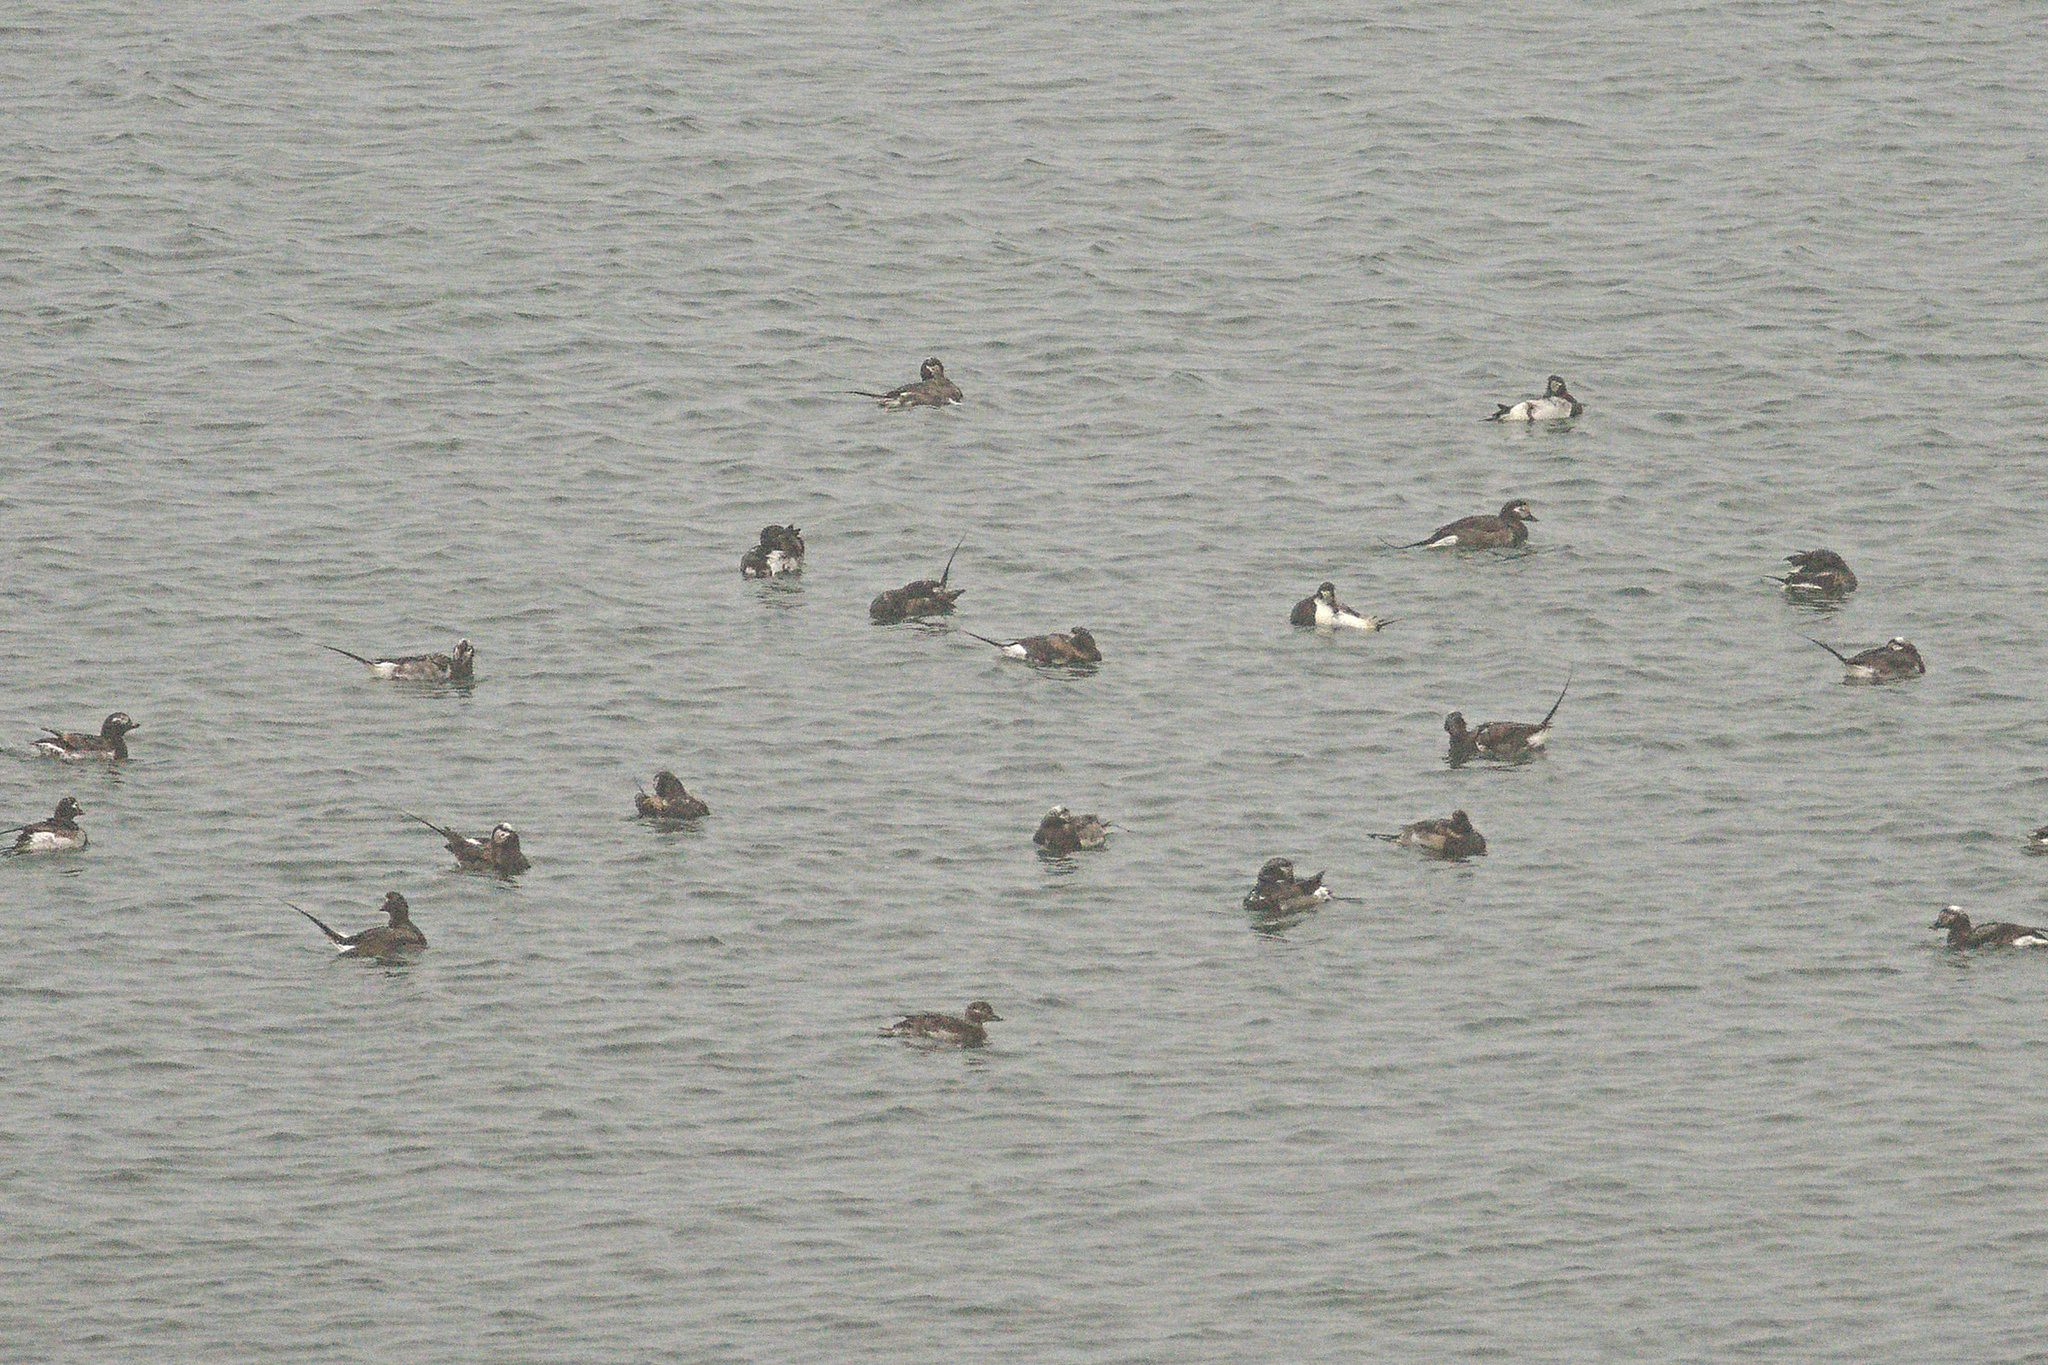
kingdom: Animalia
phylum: Chordata
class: Aves
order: Anseriformes
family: Anatidae
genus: Clangula
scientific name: Clangula hyemalis
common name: Long-tailed duck
